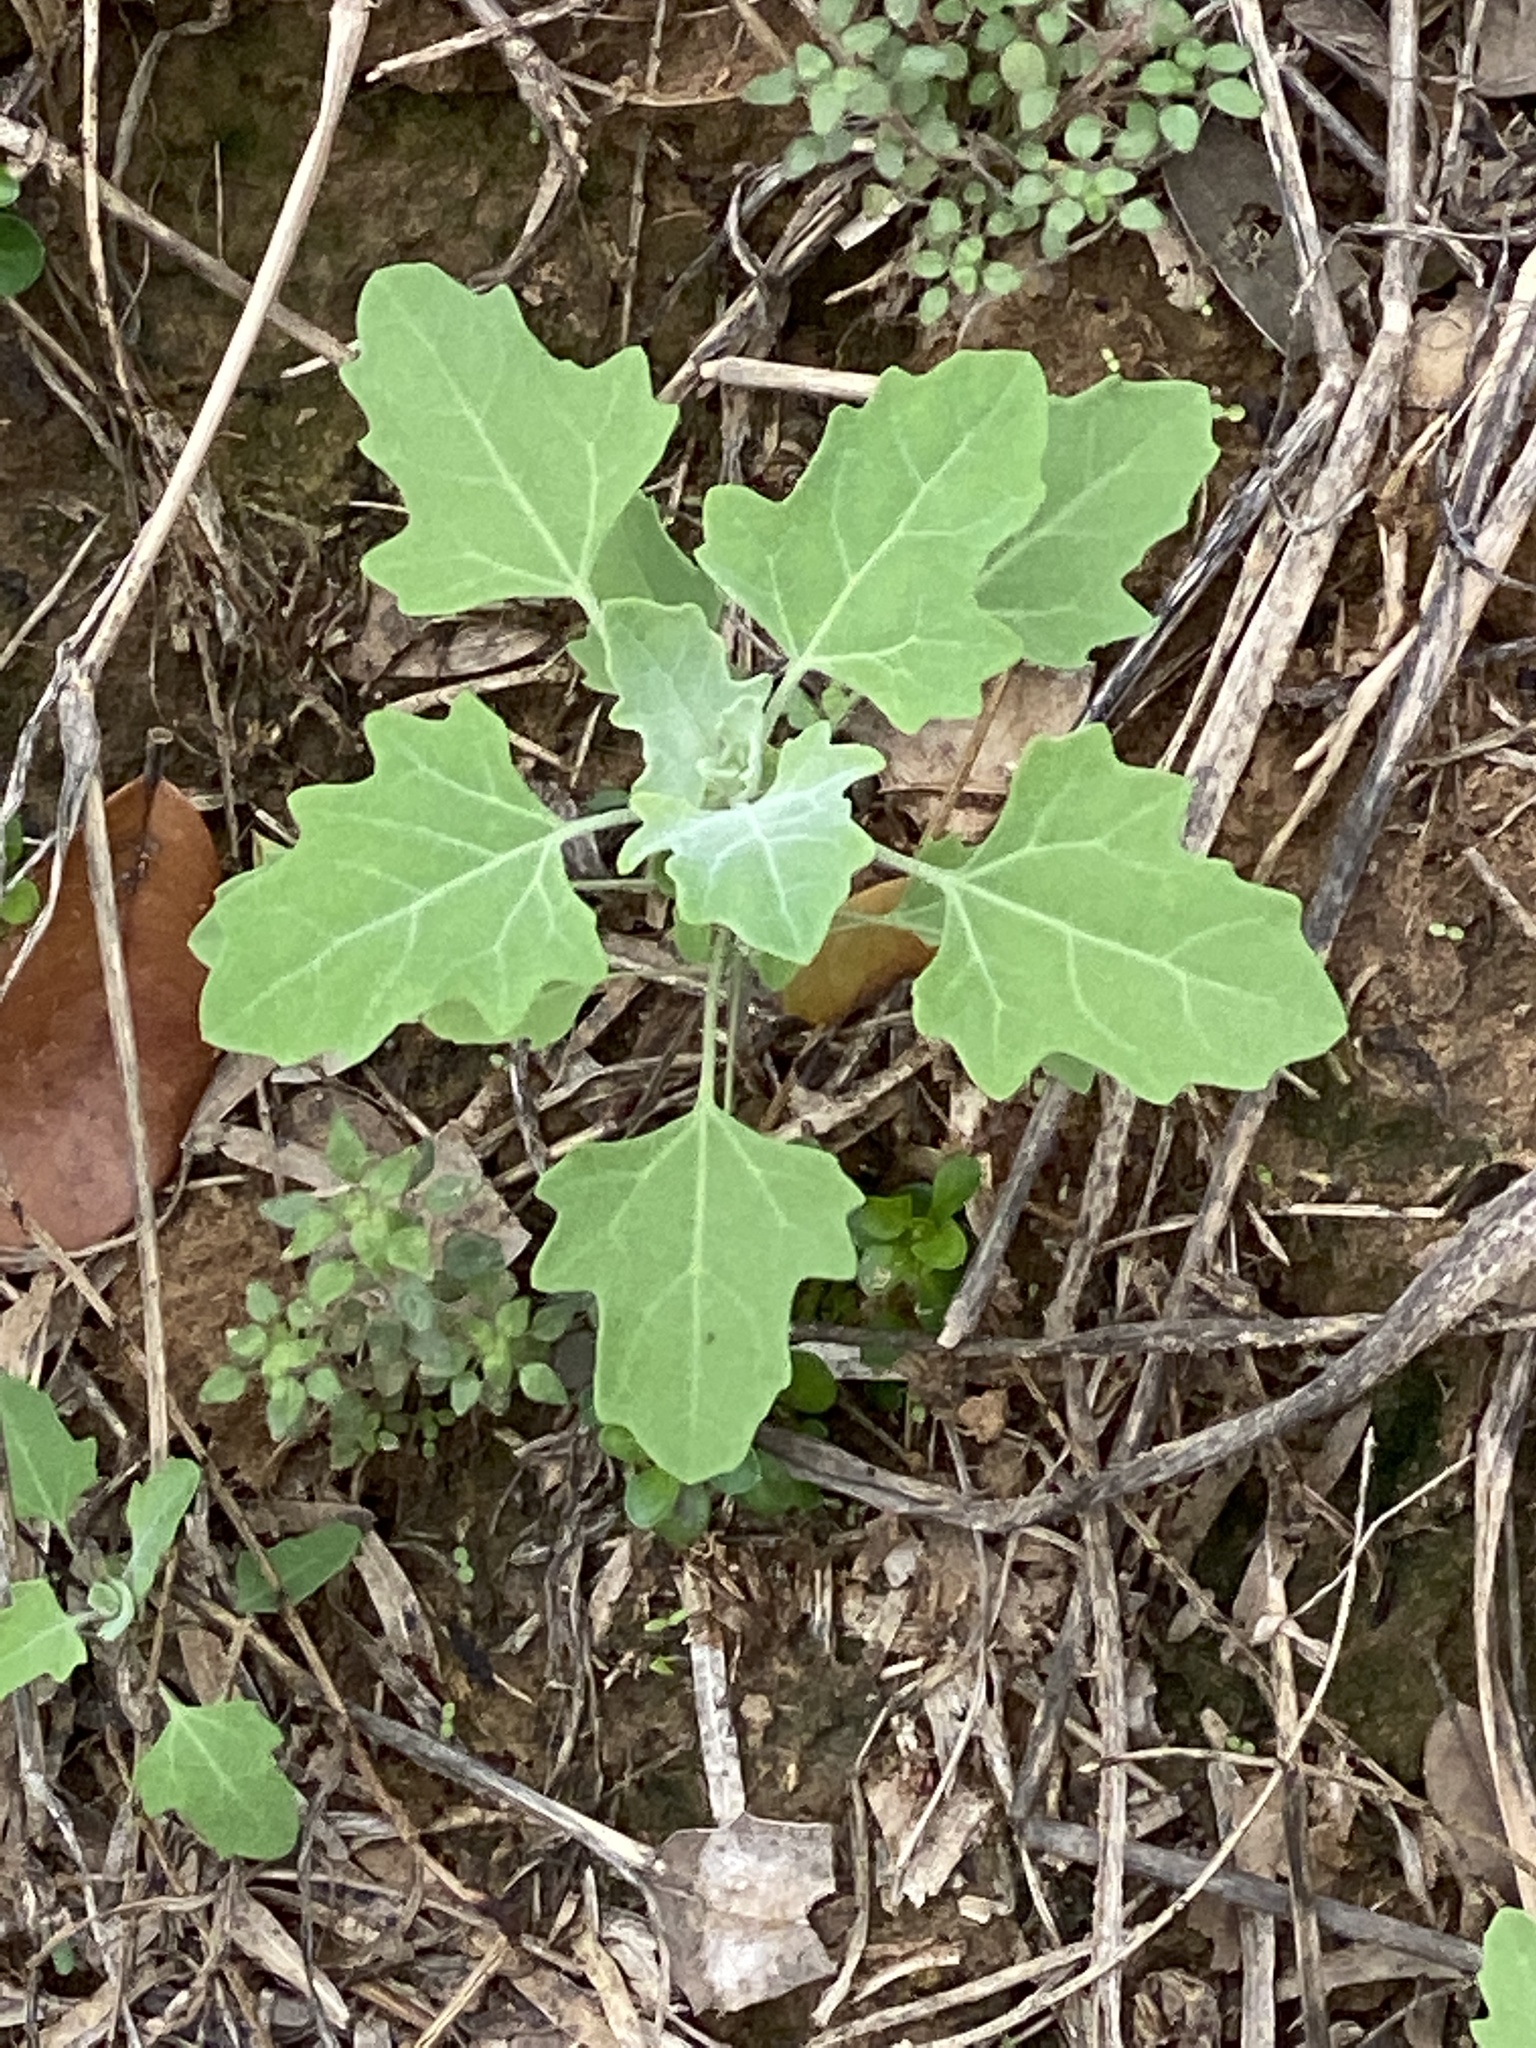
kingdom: Plantae
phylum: Tracheophyta
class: Magnoliopsida
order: Caryophyllales
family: Amaranthaceae
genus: Chenopodium
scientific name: Chenopodium album
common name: Fat-hen
